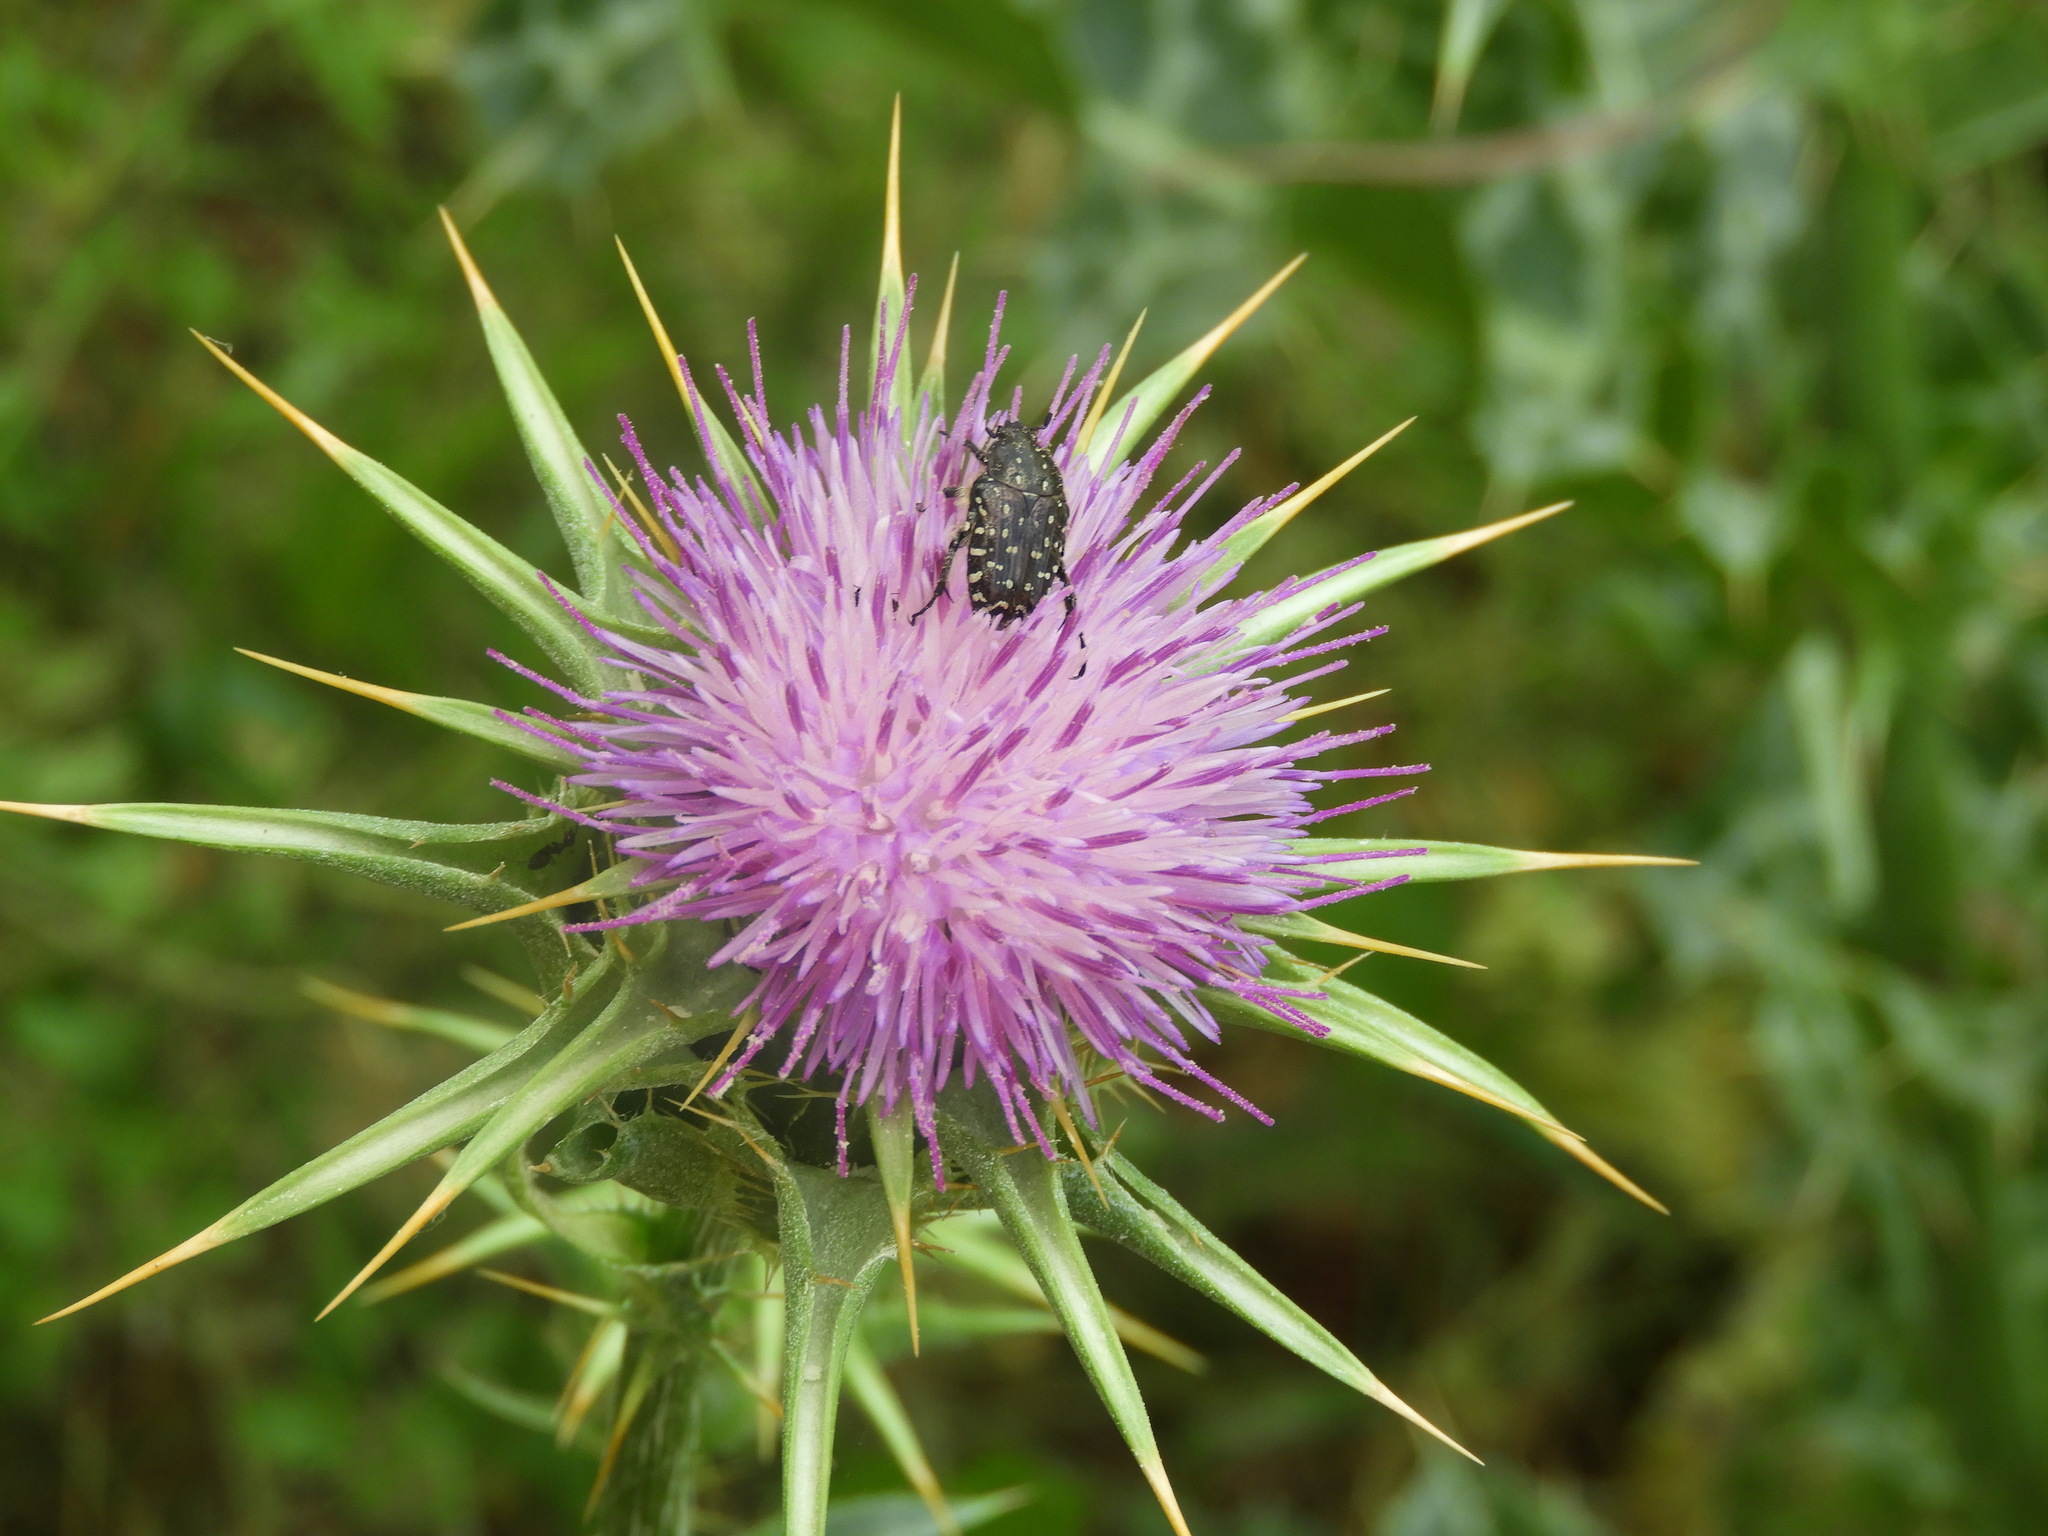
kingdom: Animalia
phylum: Arthropoda
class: Insecta
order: Coleoptera
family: Scarabaeidae
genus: Oxythyrea
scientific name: Oxythyrea funesta
